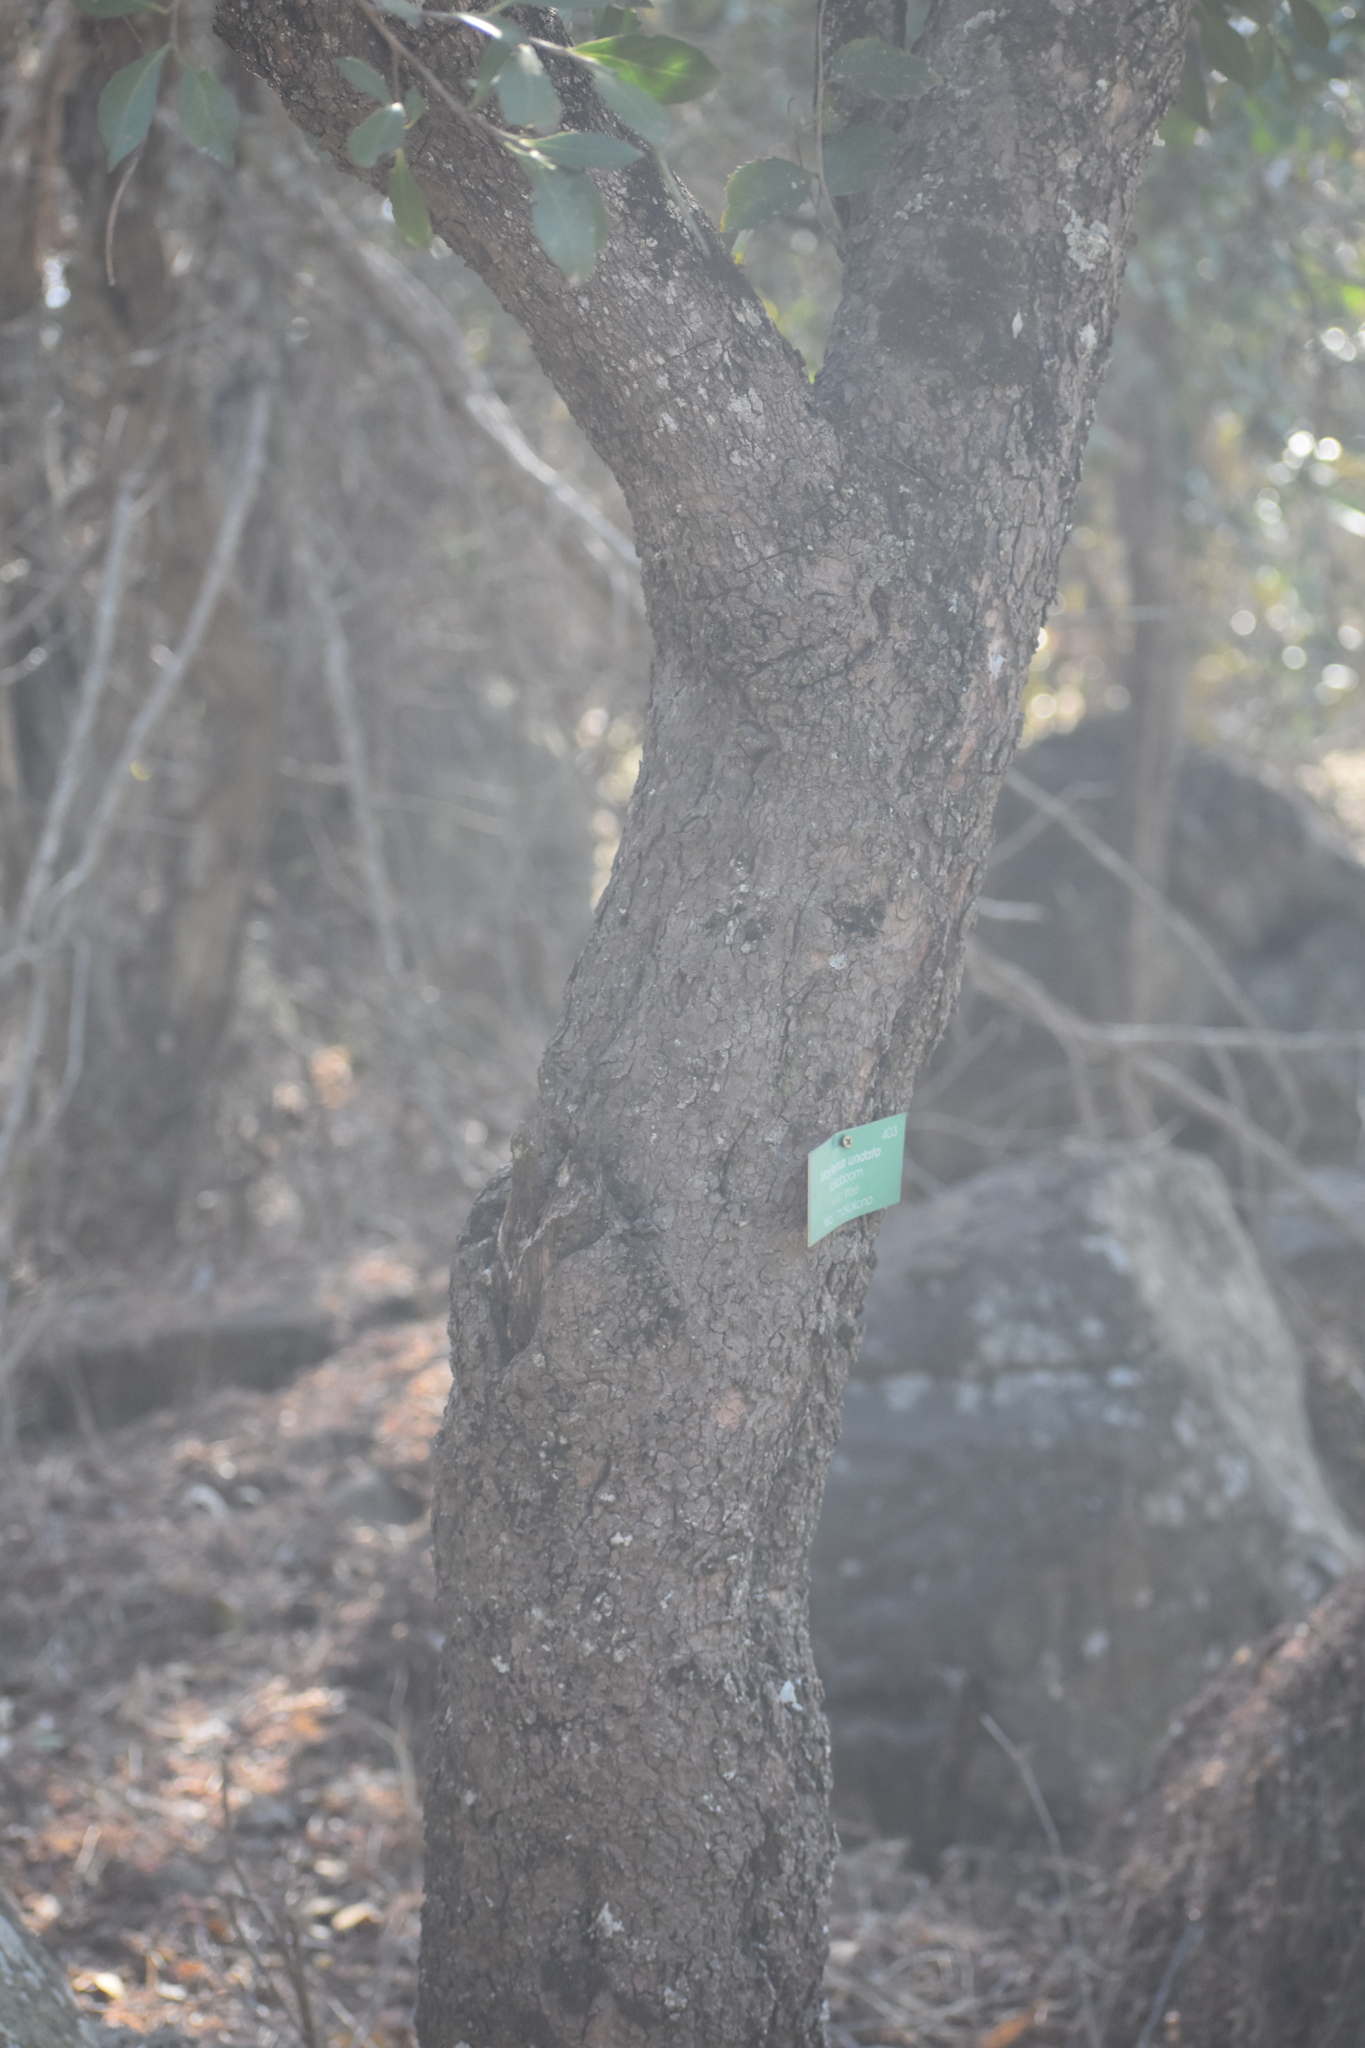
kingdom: Plantae
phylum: Tracheophyta
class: Magnoliopsida
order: Celastrales
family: Celastraceae
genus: Gymnosporia
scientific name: Gymnosporia undata
